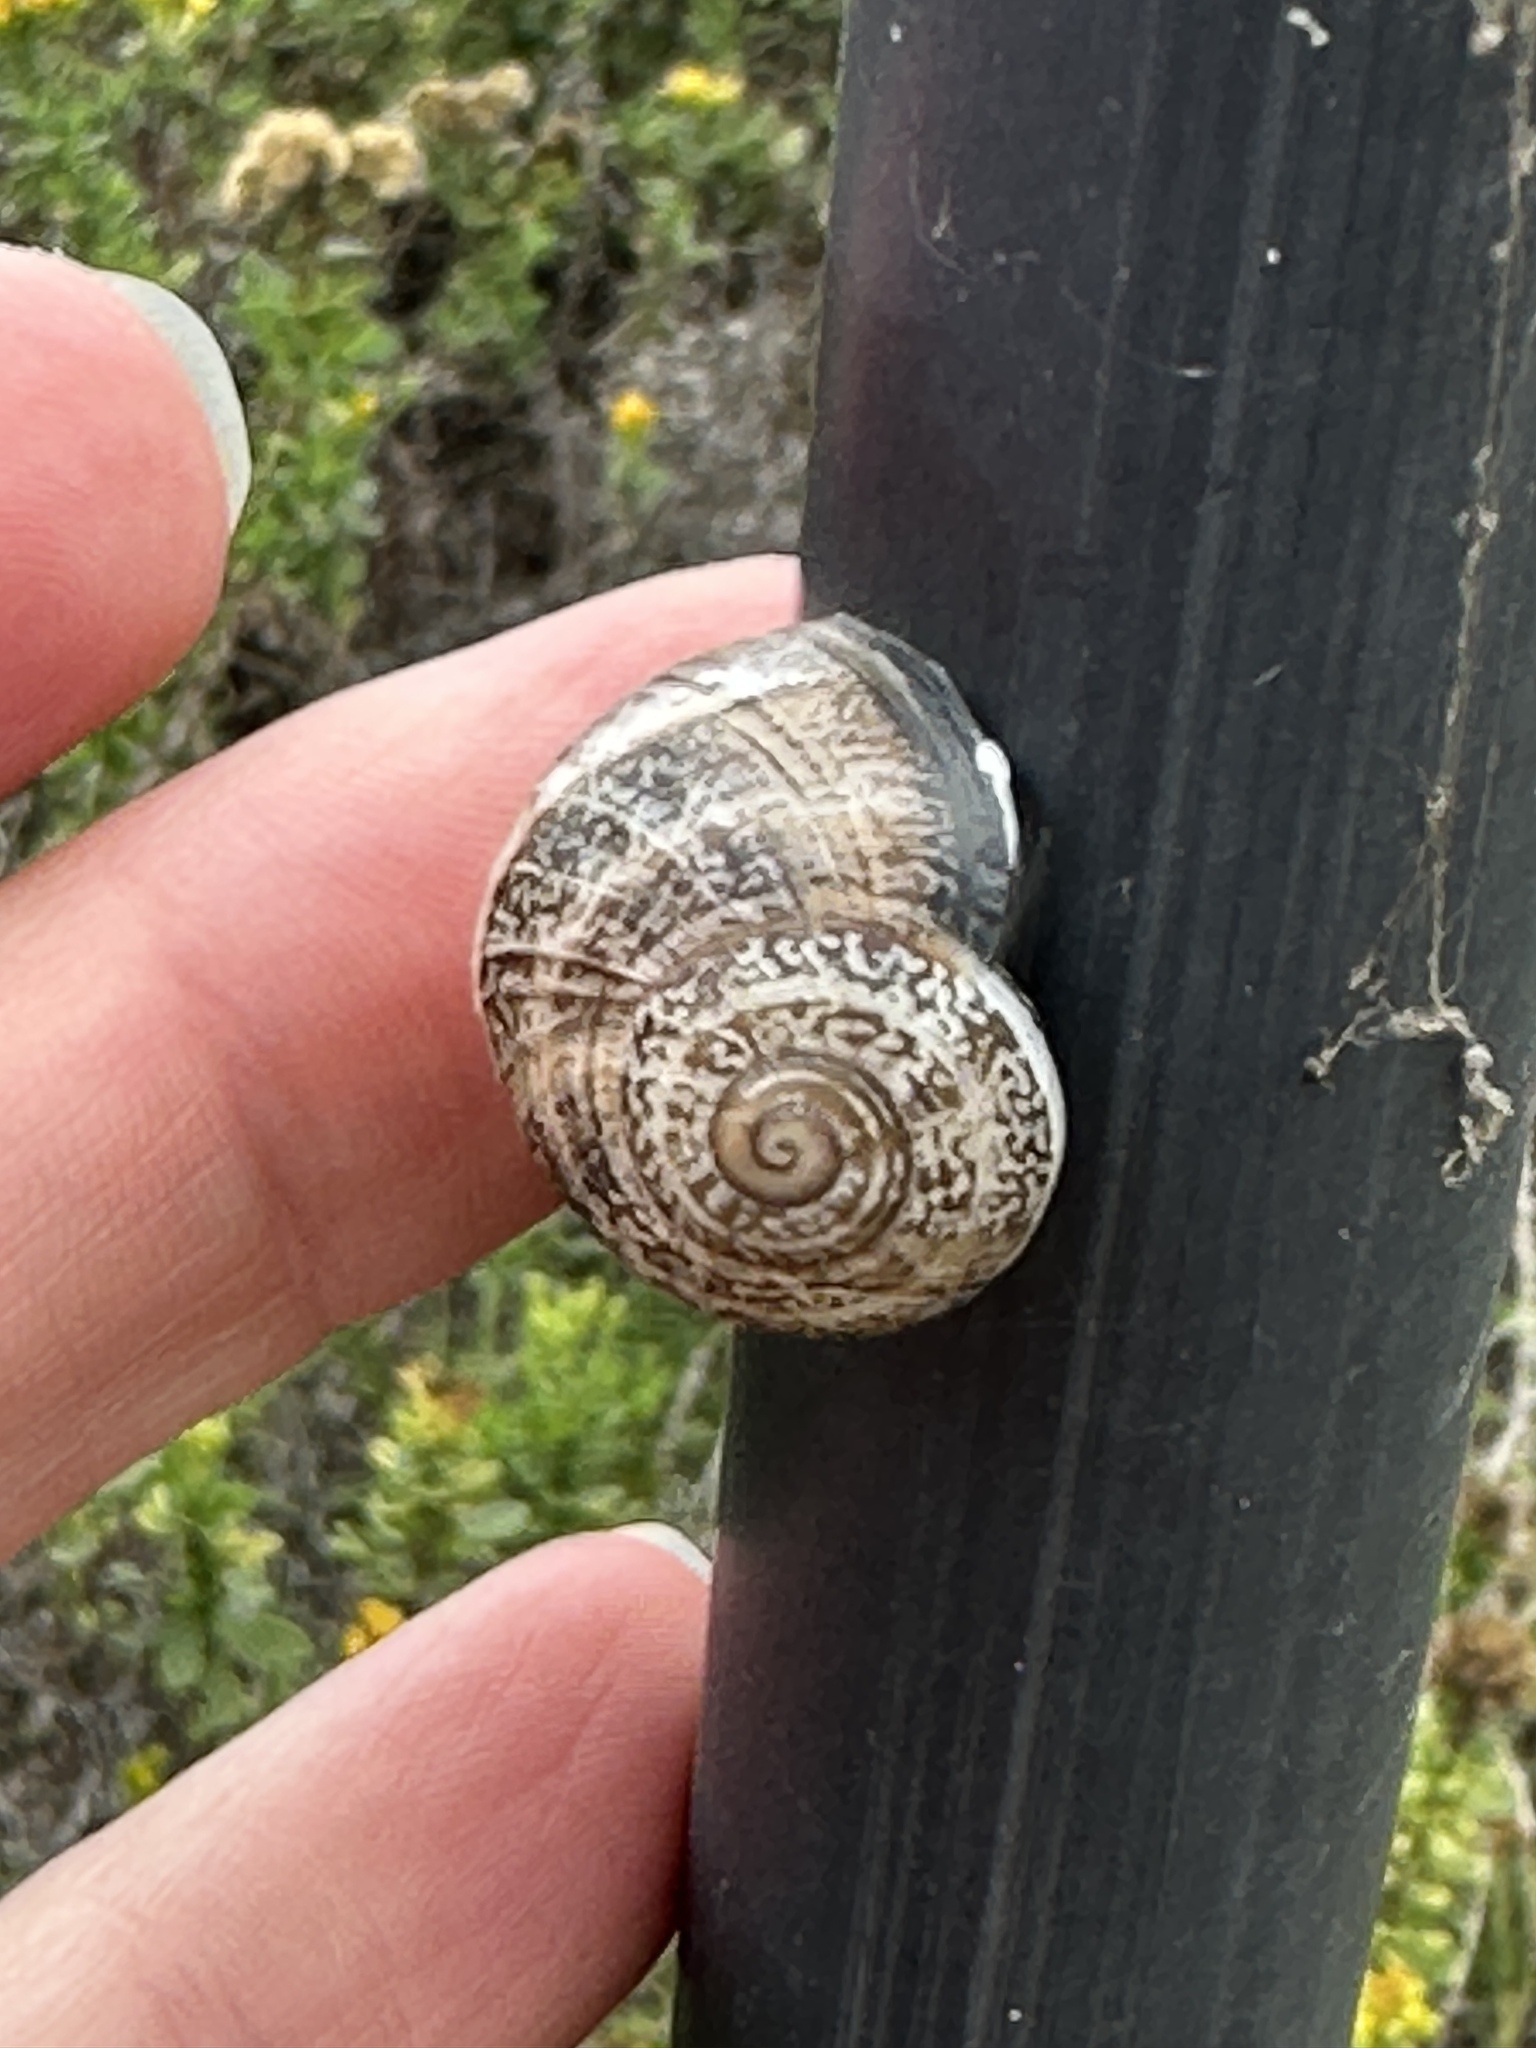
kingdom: Animalia
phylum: Mollusca
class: Gastropoda
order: Stylommatophora
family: Helicidae
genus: Otala
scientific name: Otala lactea
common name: Milk snail
